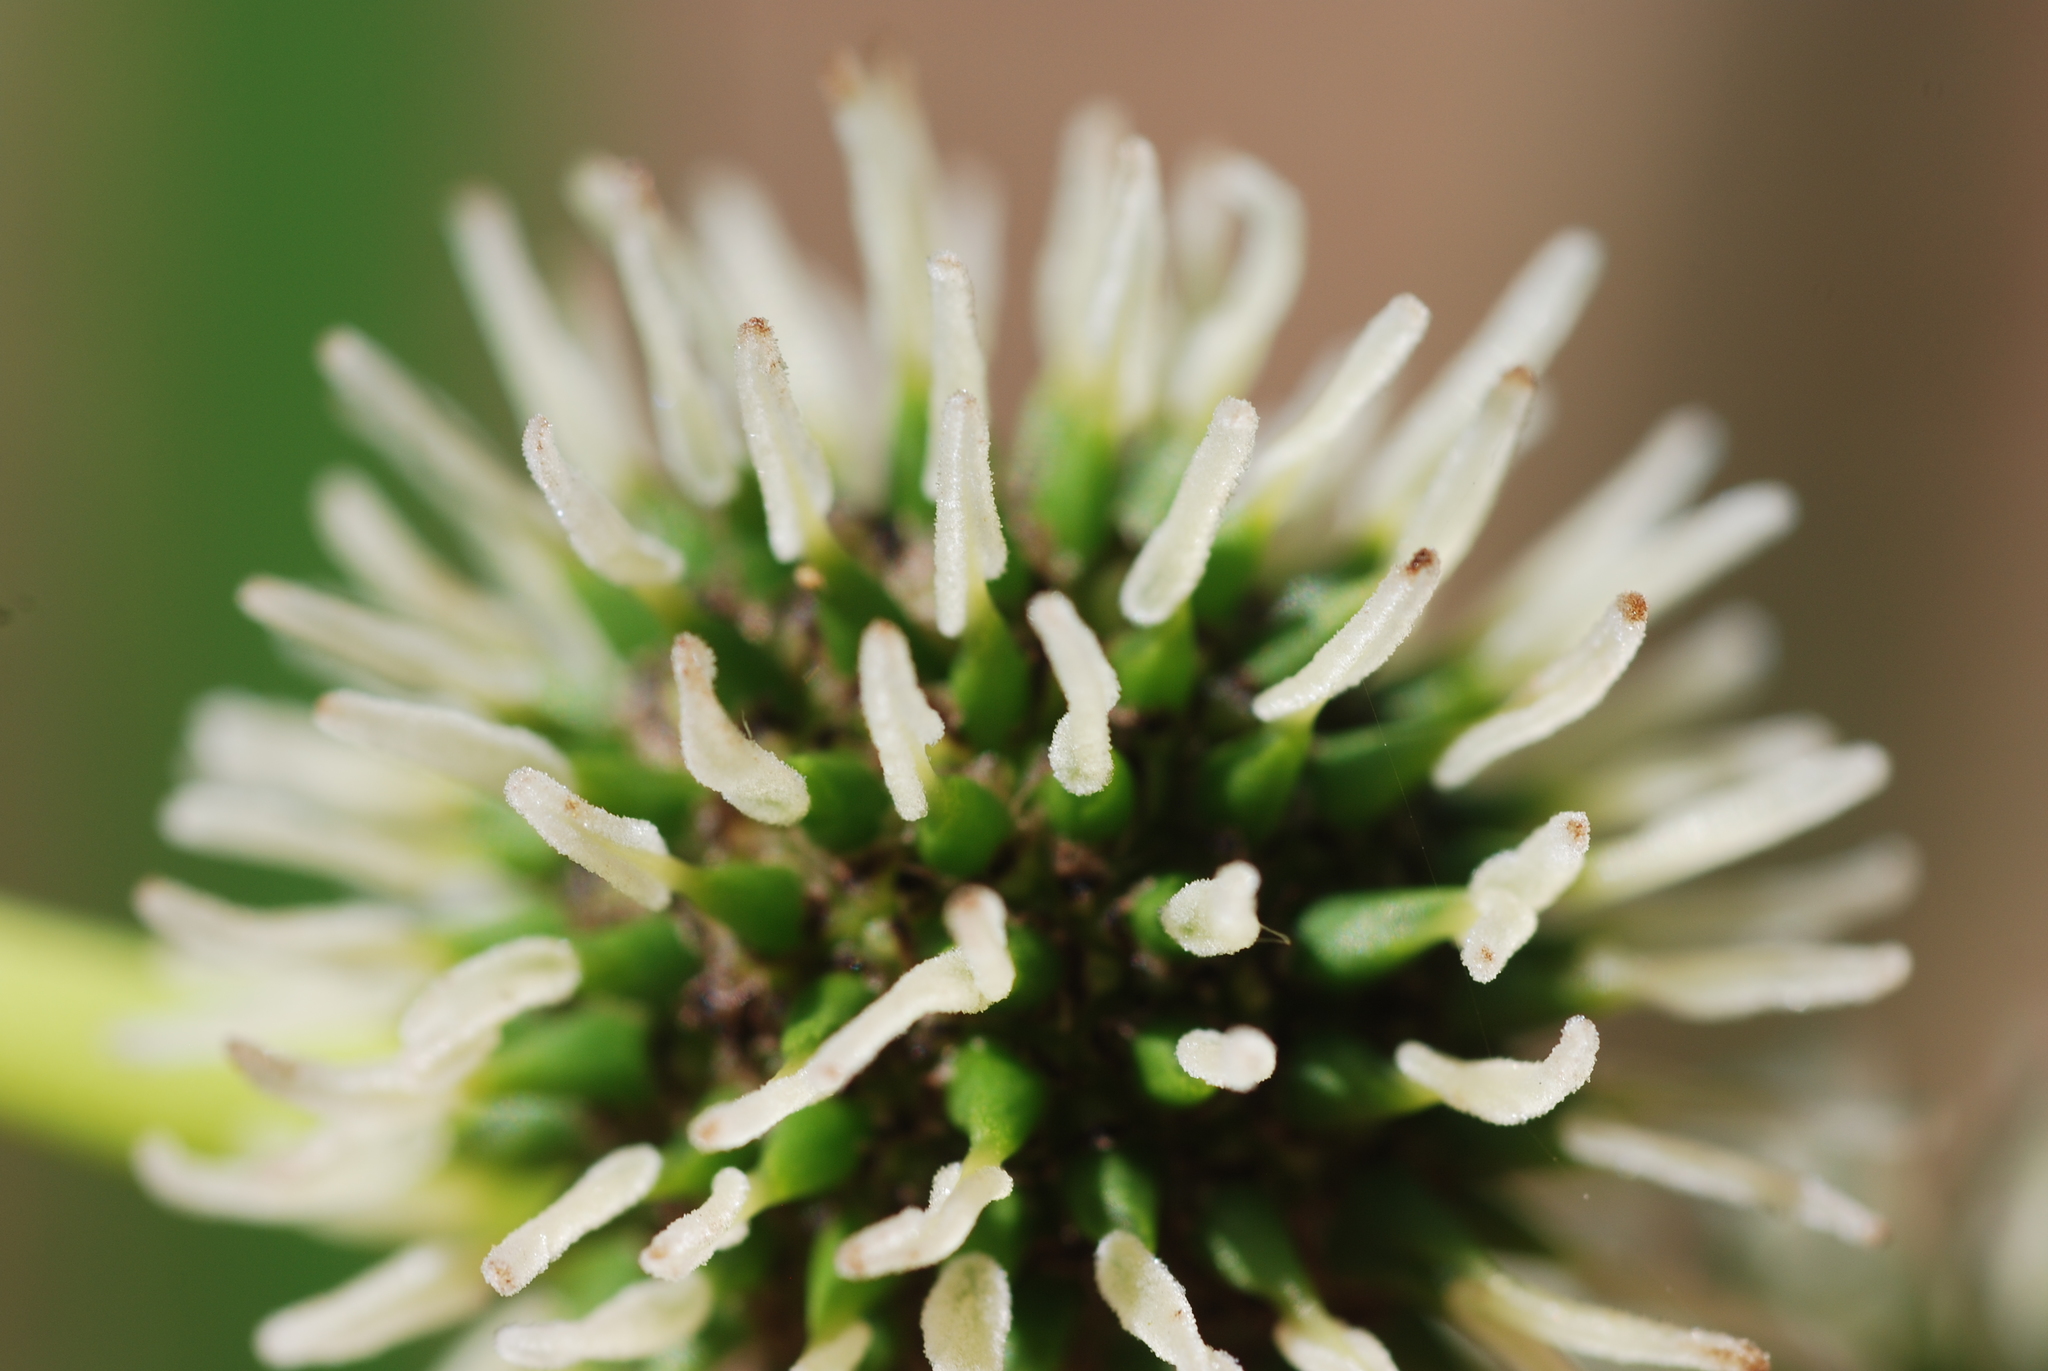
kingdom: Plantae
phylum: Tracheophyta
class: Liliopsida
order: Poales
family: Typhaceae
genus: Sparganium
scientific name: Sparganium erectum
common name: Branched bur-reed
